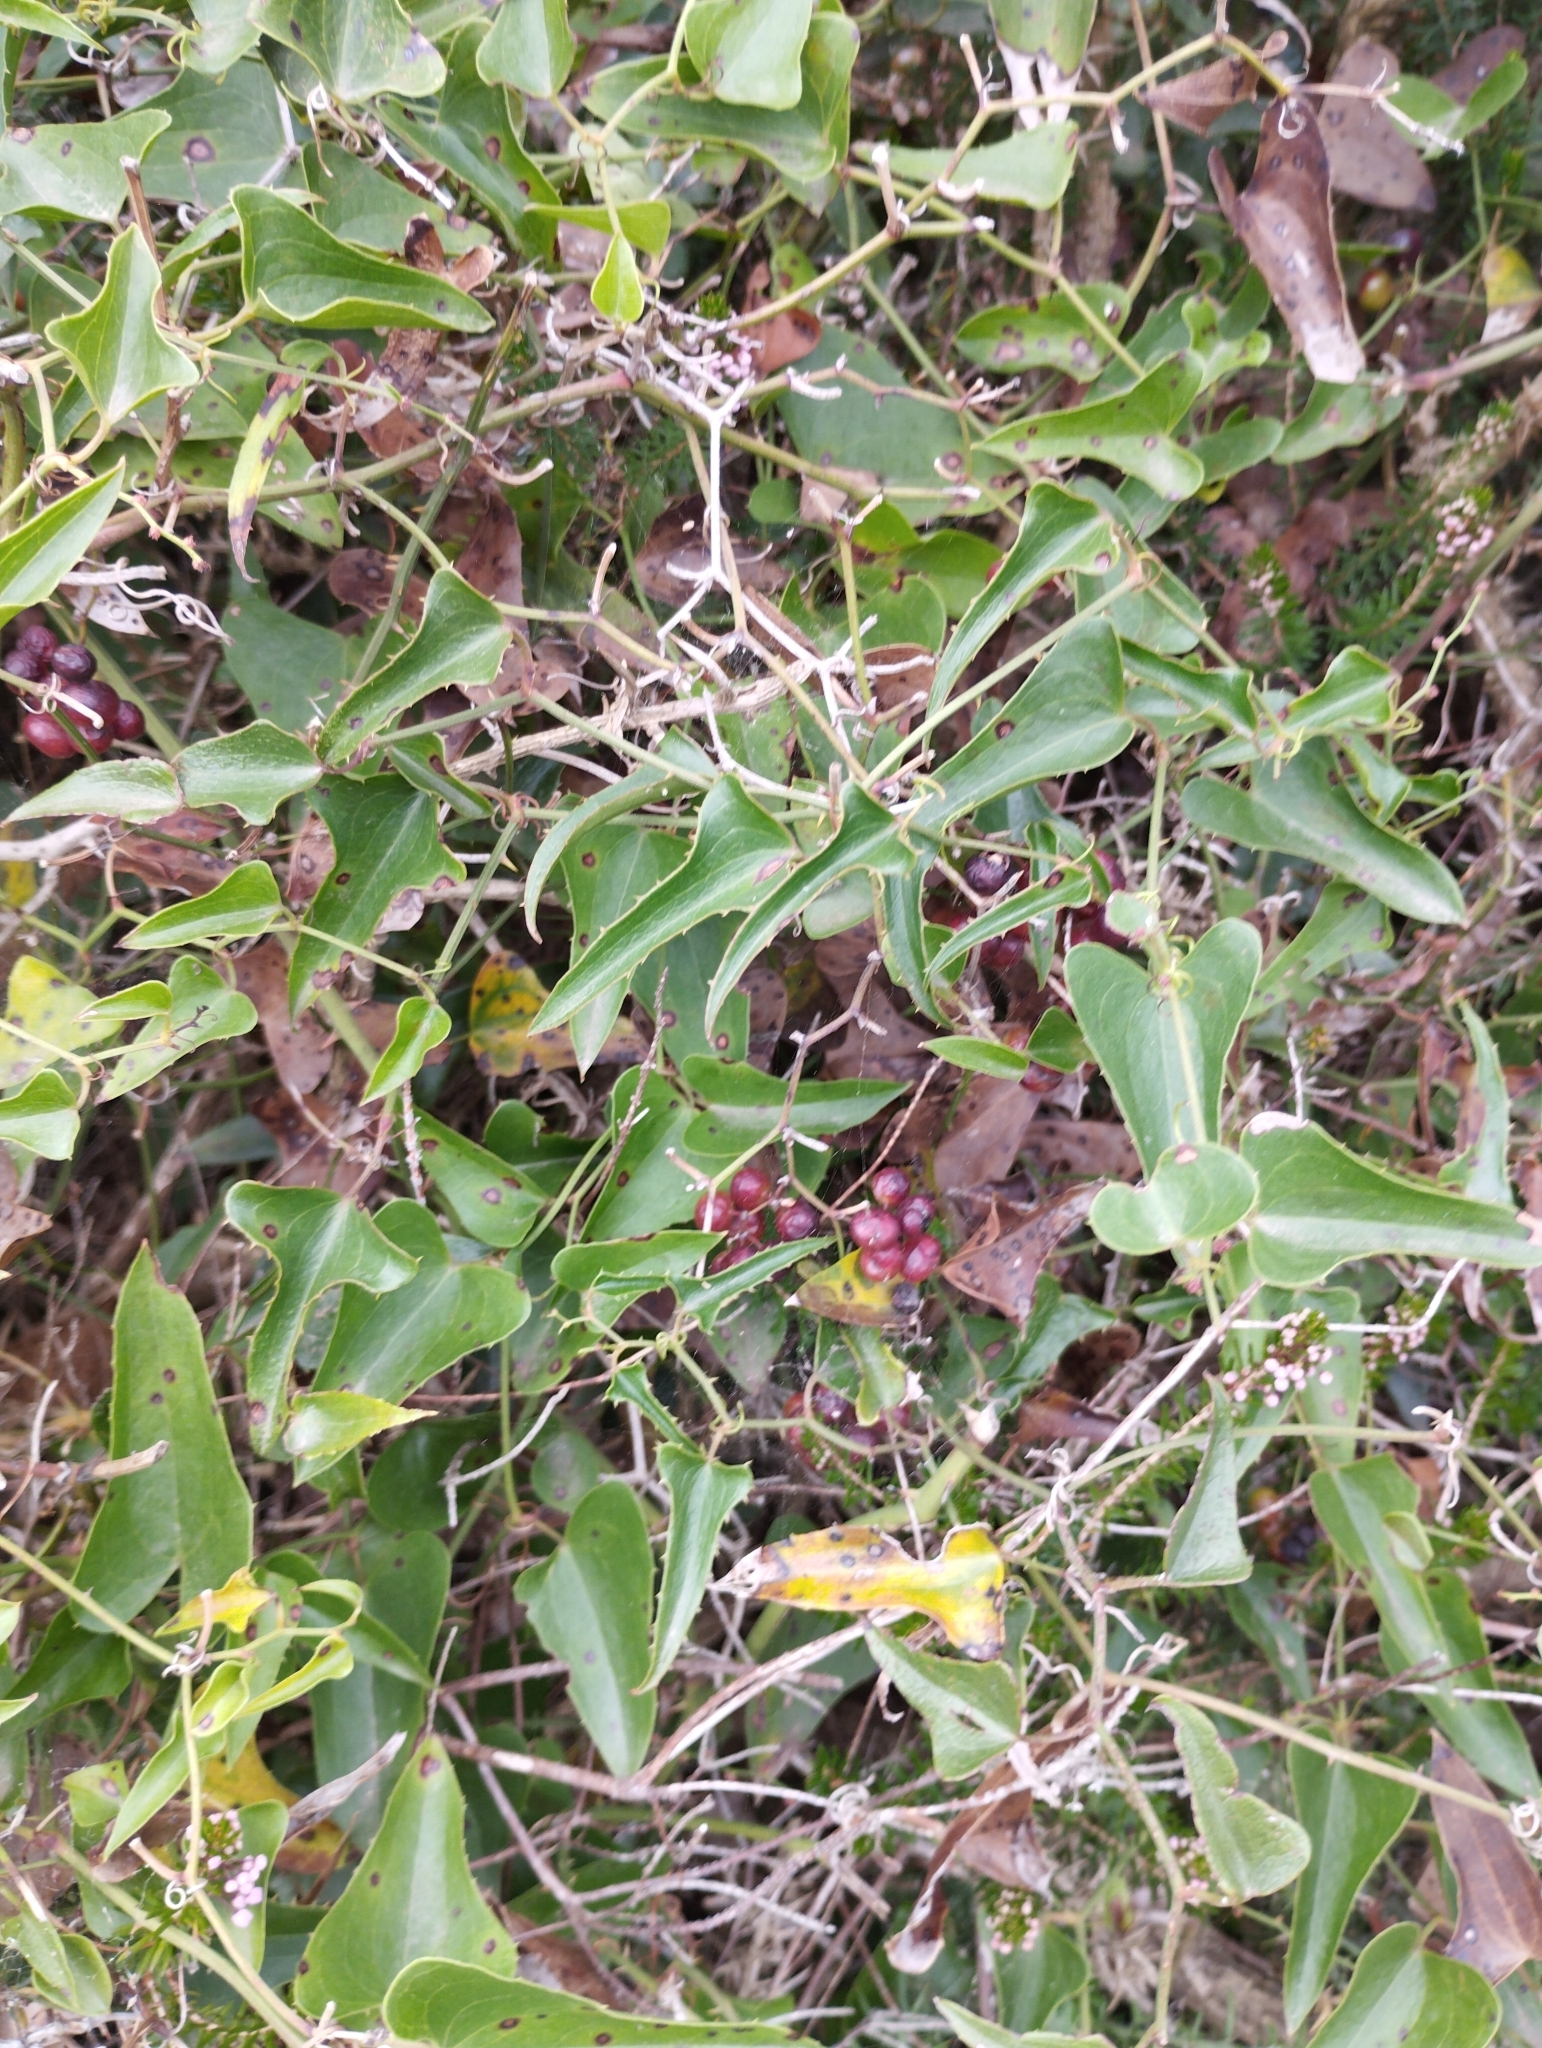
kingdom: Plantae
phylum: Tracheophyta
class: Liliopsida
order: Liliales
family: Smilacaceae
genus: Smilax
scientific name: Smilax aspera
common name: Common smilax
